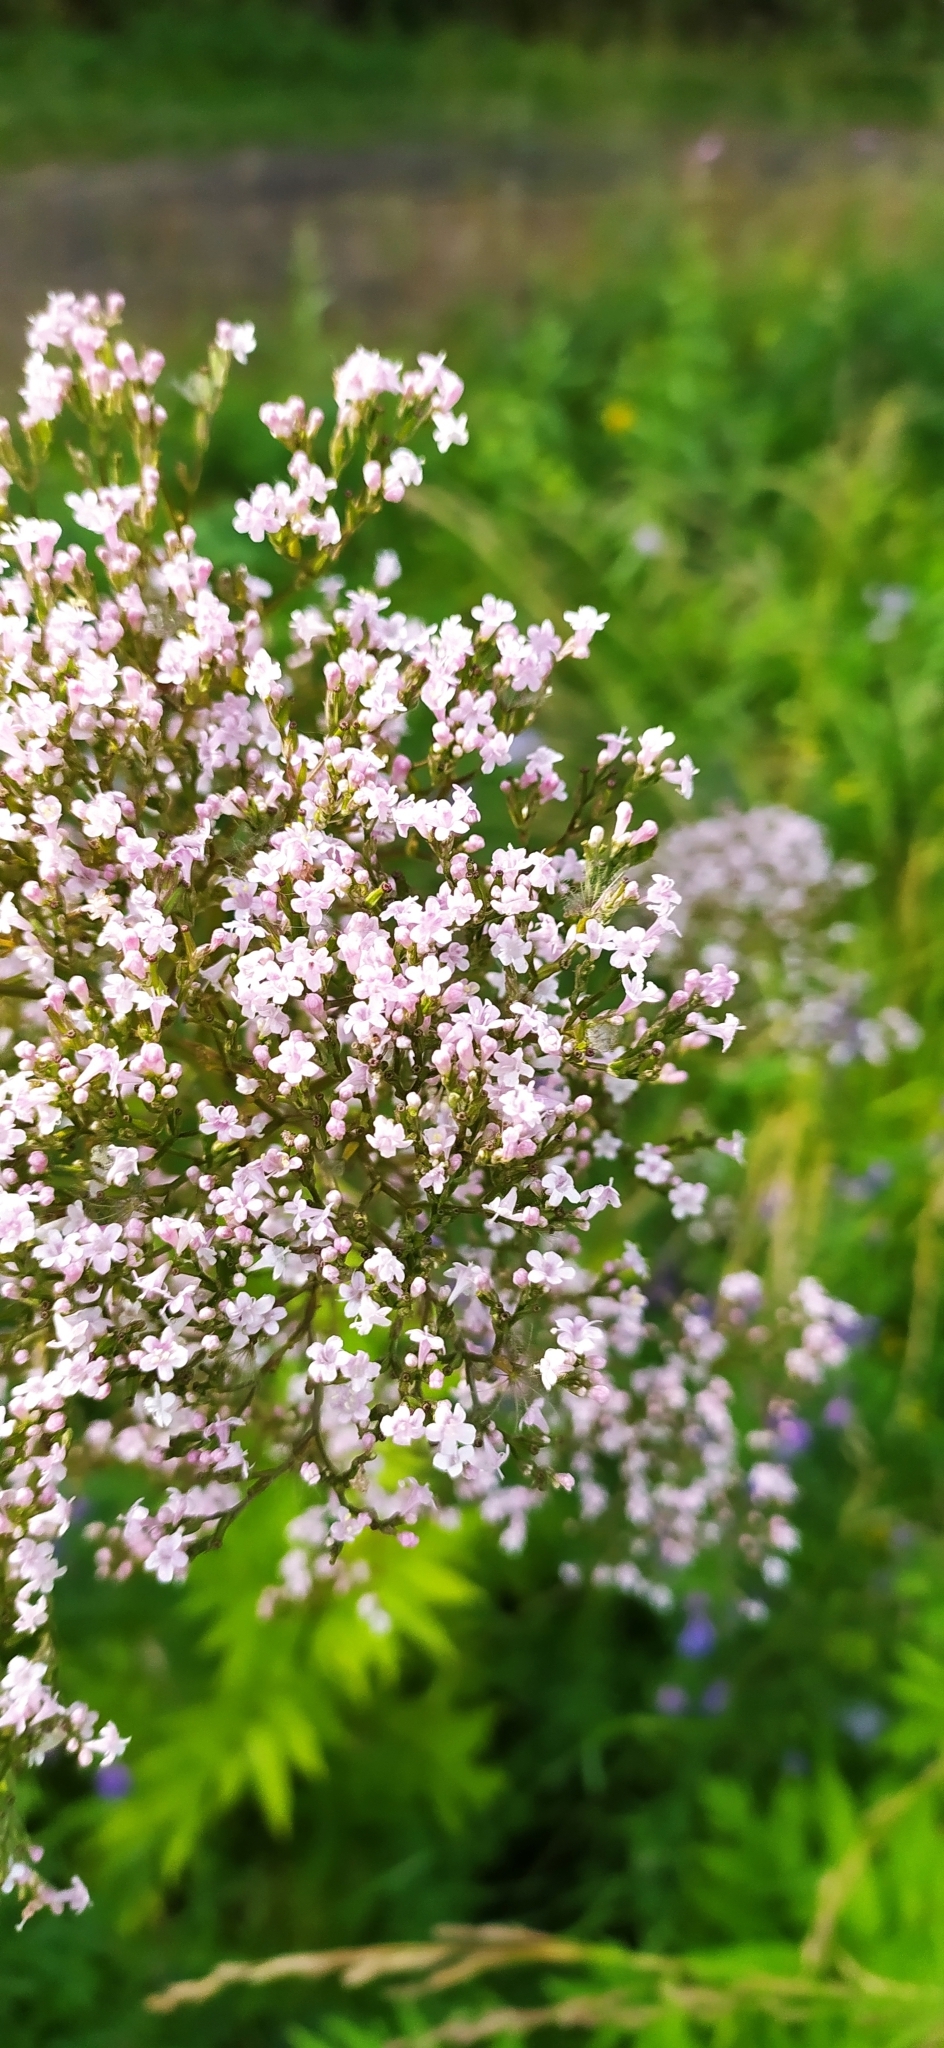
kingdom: Plantae
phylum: Tracheophyta
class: Magnoliopsida
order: Dipsacales
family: Caprifoliaceae
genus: Valeriana
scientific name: Valeriana wolgensis
